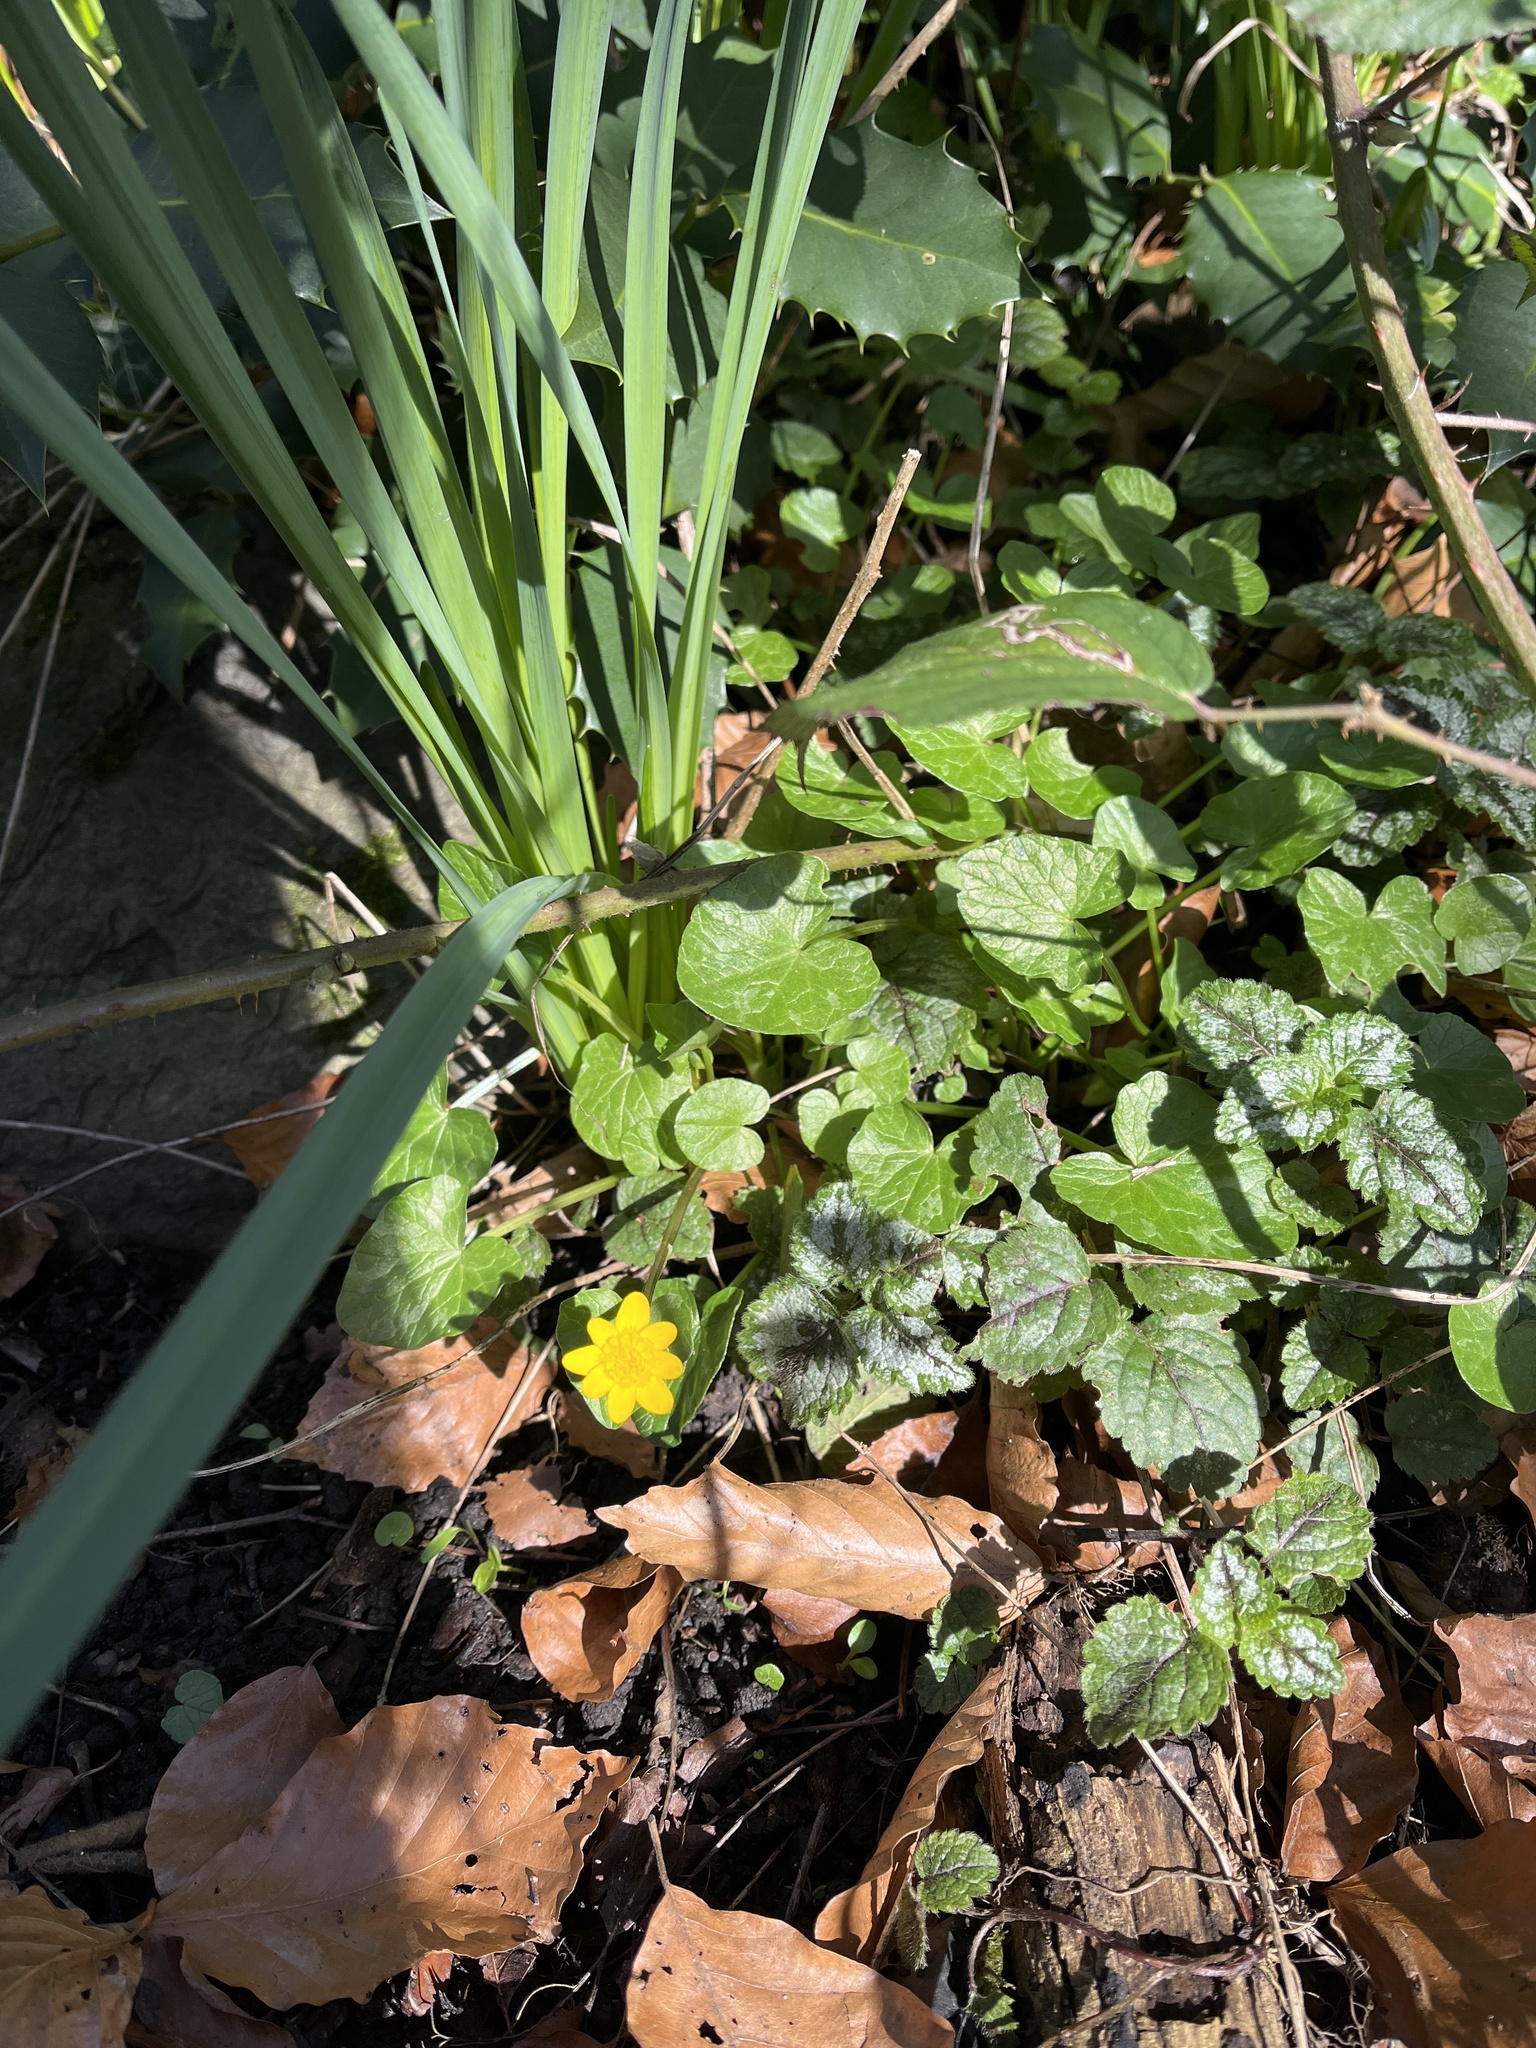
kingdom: Plantae
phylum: Tracheophyta
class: Magnoliopsida
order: Ranunculales
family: Ranunculaceae
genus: Ficaria
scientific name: Ficaria verna
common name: Lesser celandine
